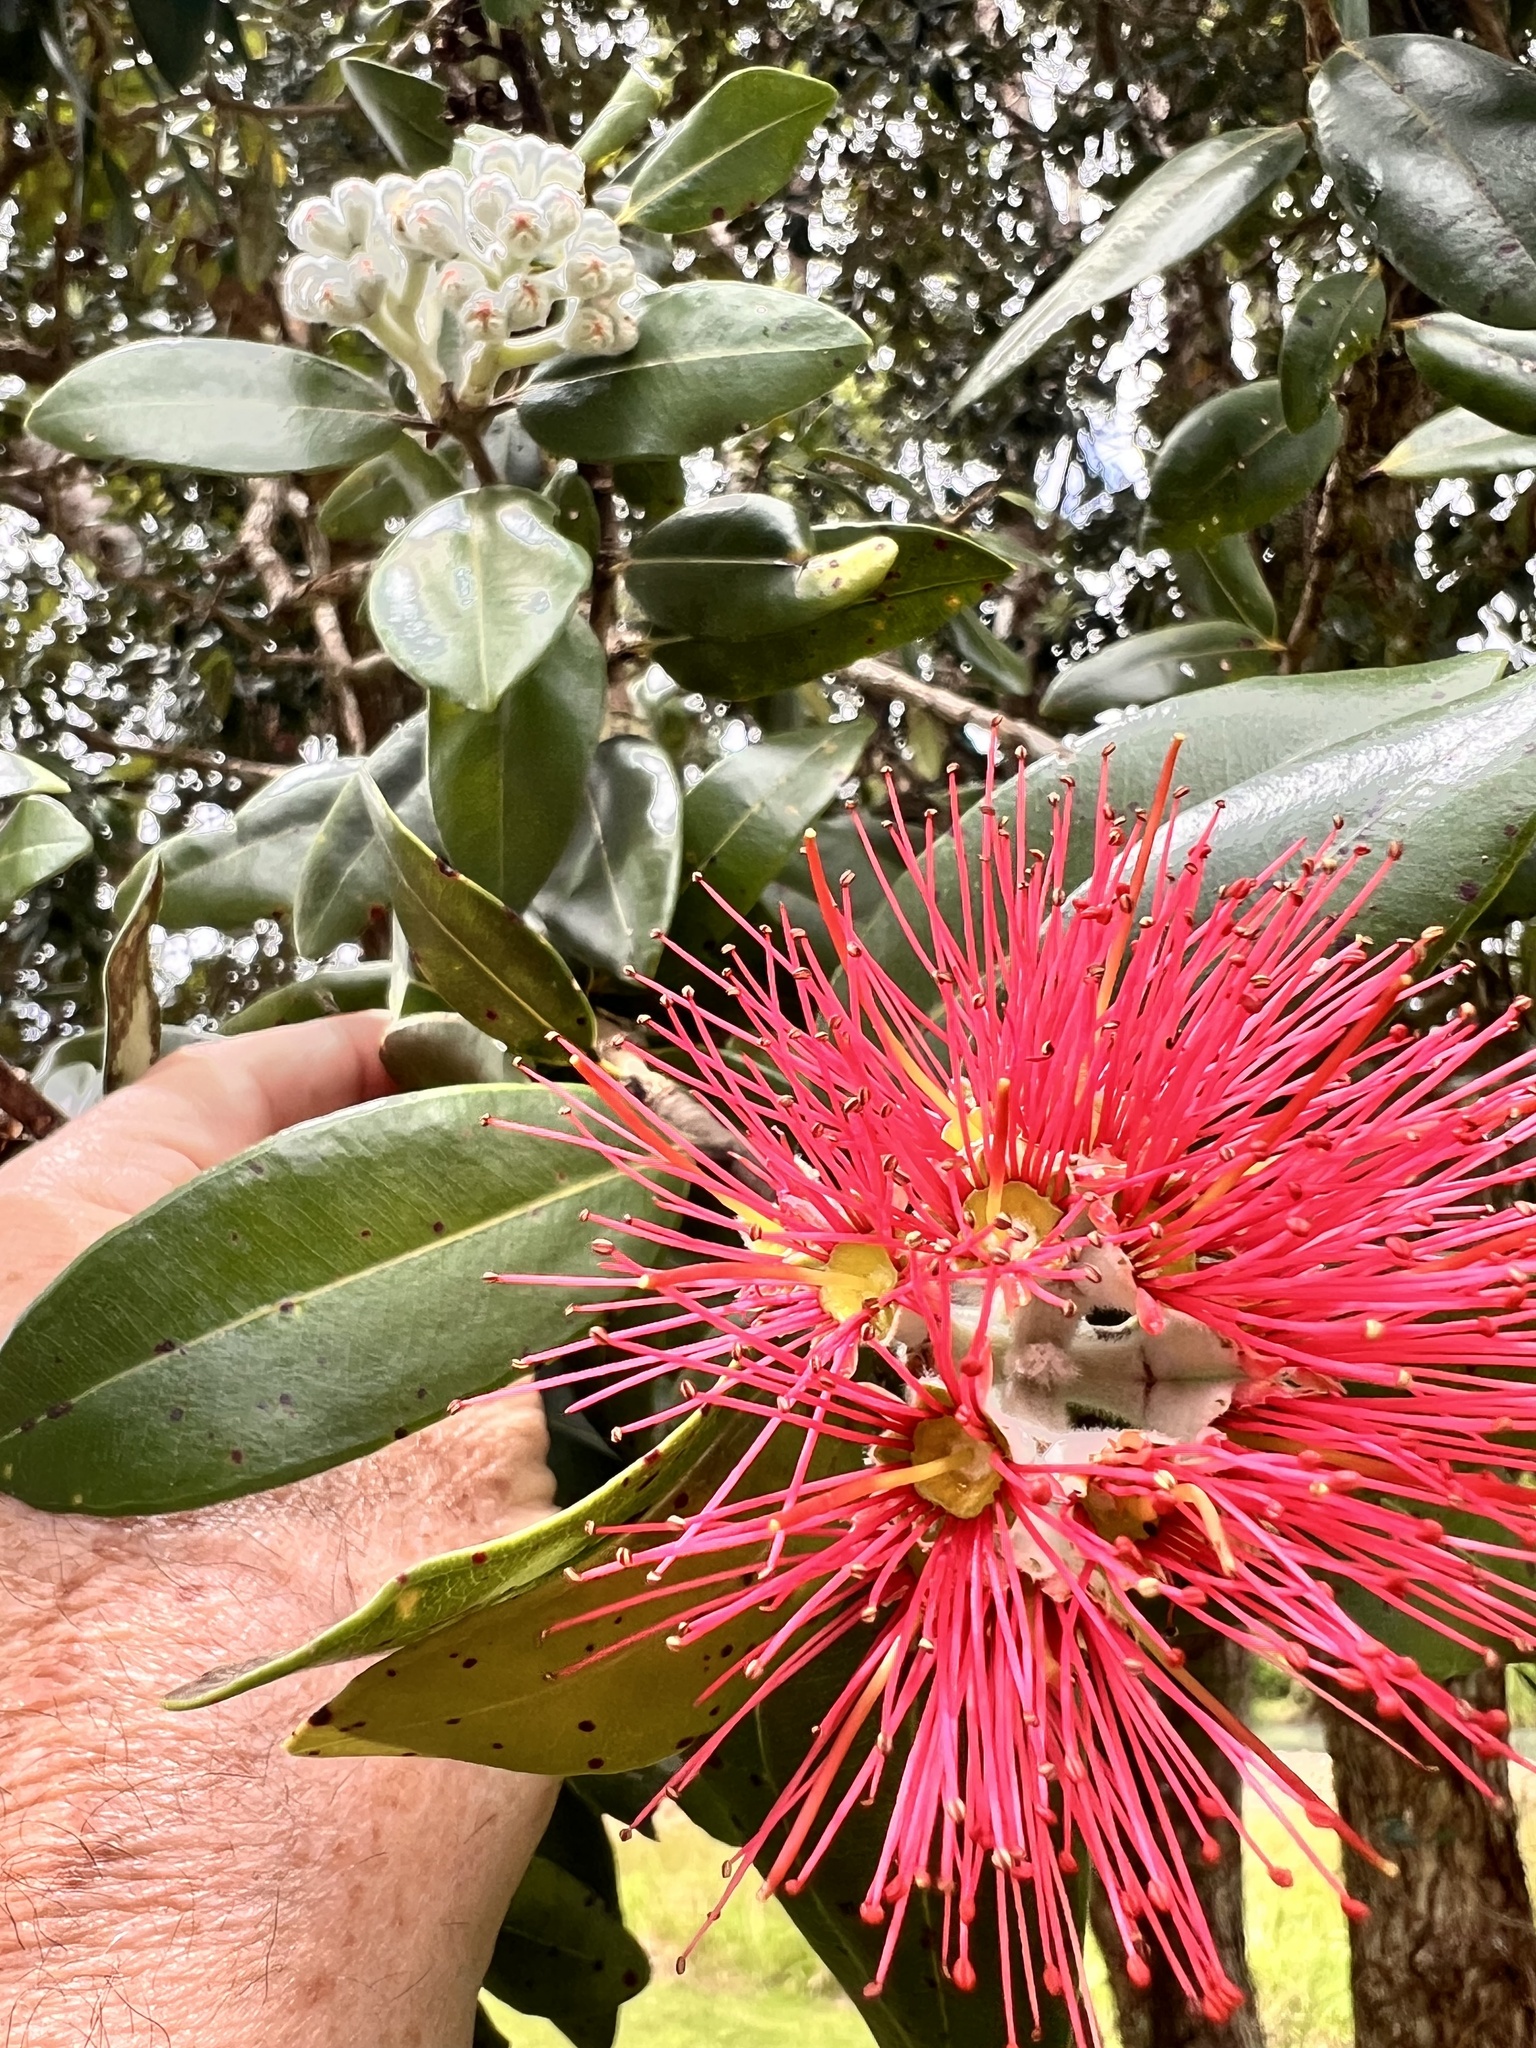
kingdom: Plantae
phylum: Tracheophyta
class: Magnoliopsida
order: Myrtales
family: Myrtaceae
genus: Metrosideros
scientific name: Metrosideros excelsa
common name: New zealand christmastree
